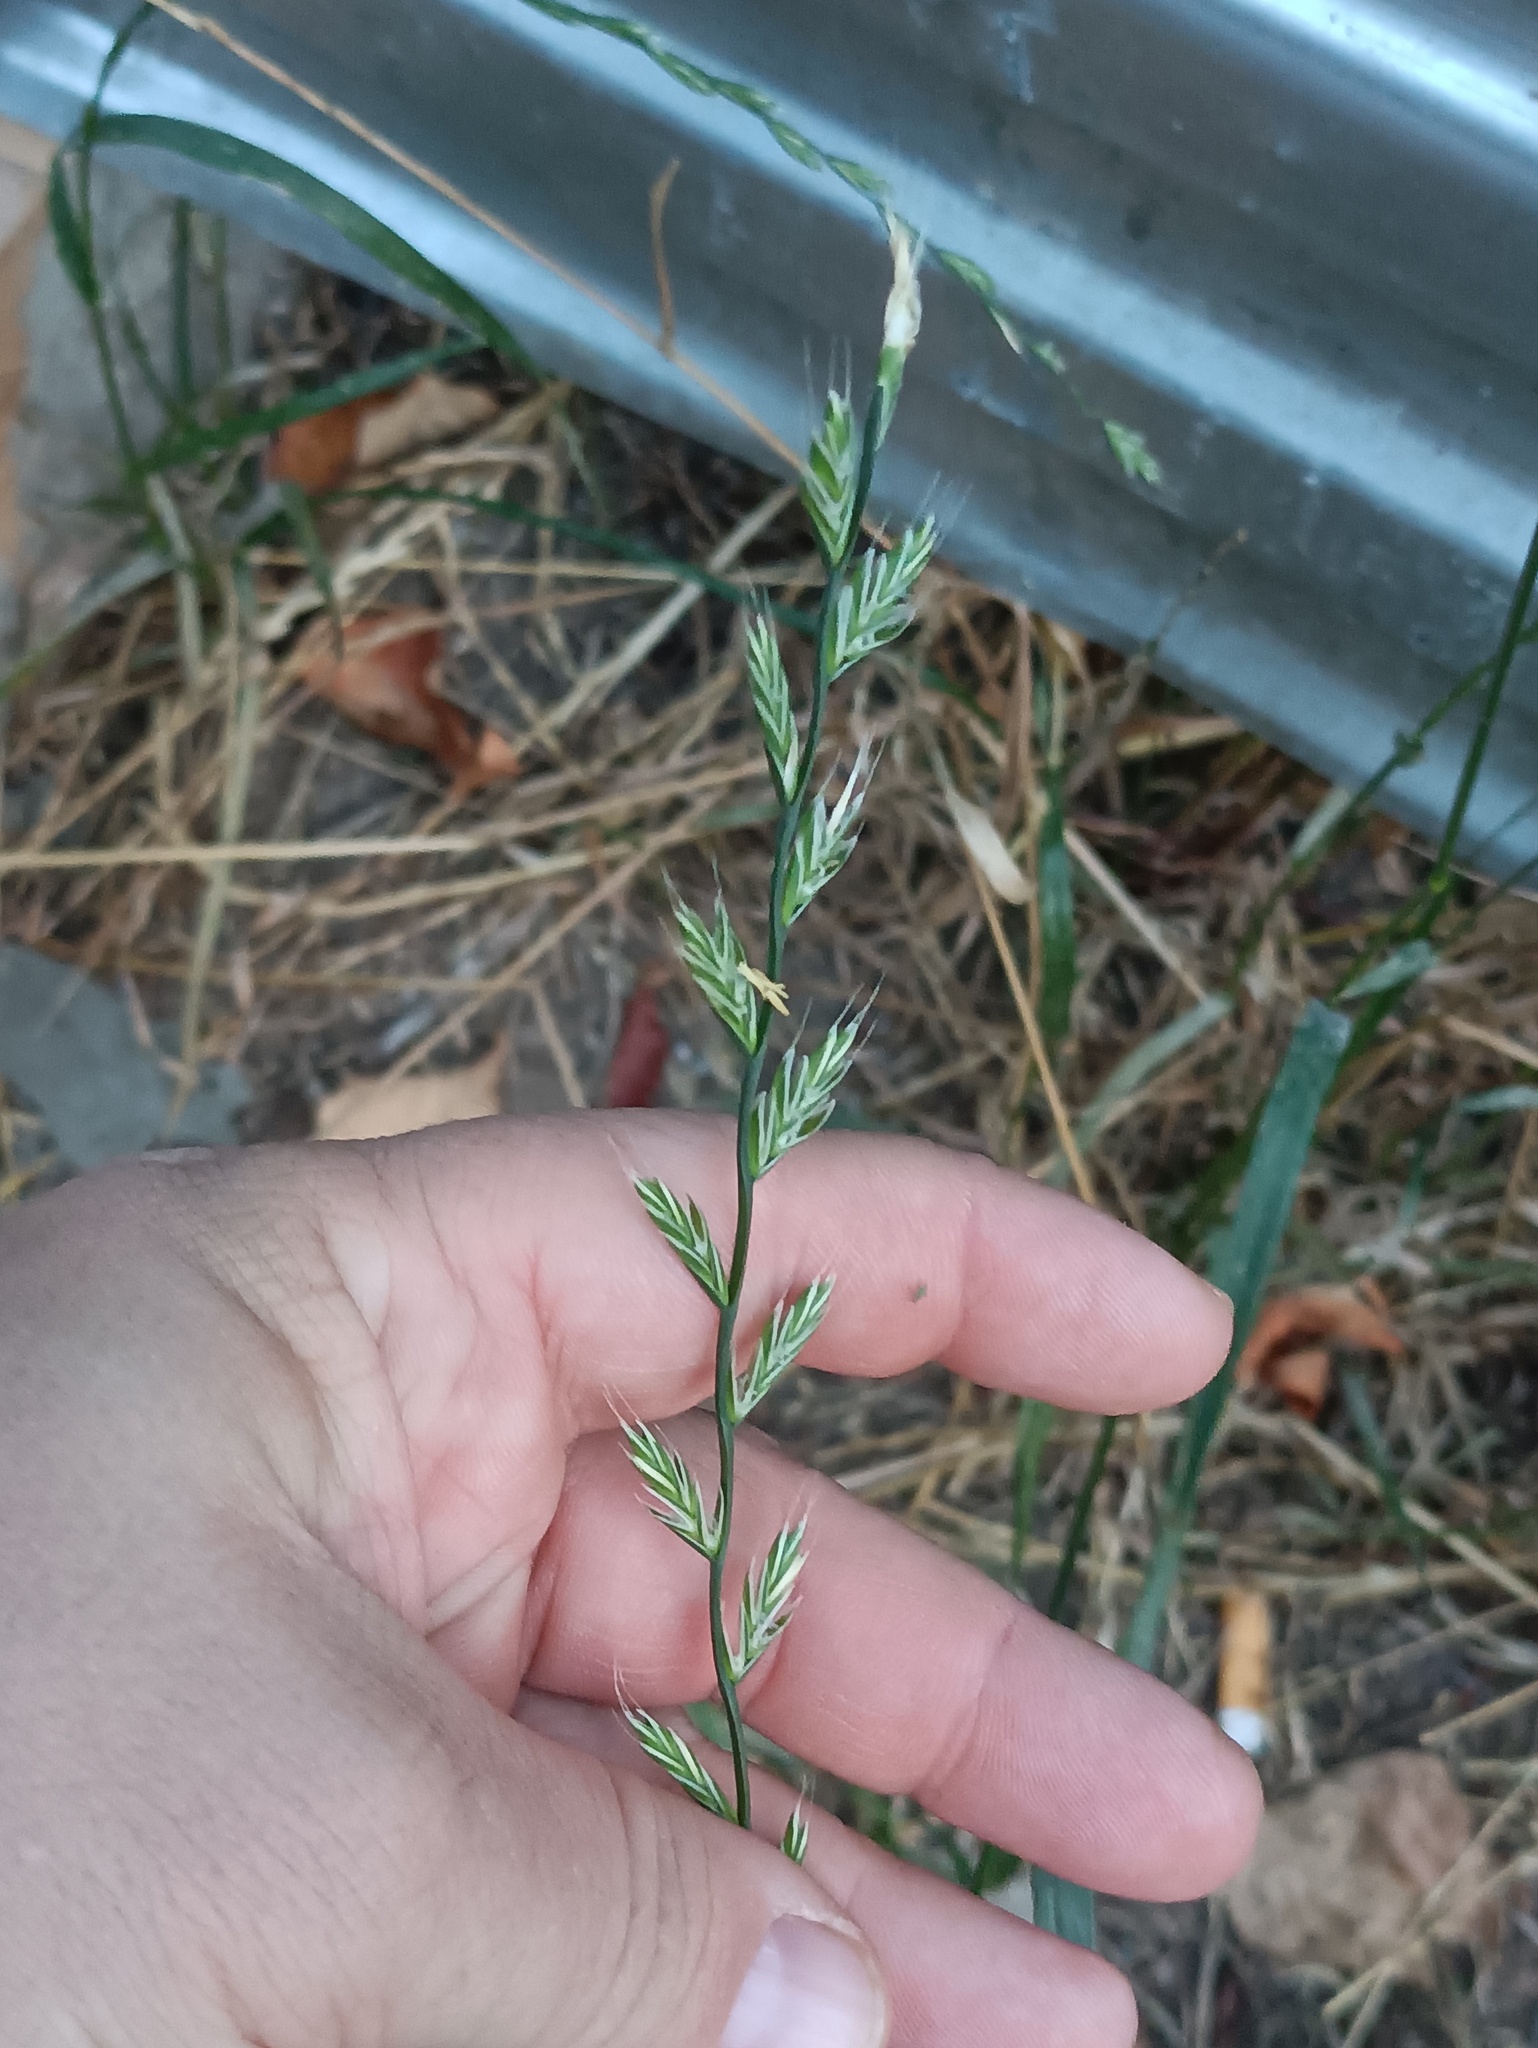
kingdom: Plantae
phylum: Tracheophyta
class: Liliopsida
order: Poales
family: Poaceae
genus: Lolium
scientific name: Lolium multiflorum
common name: Annual ryegrass
